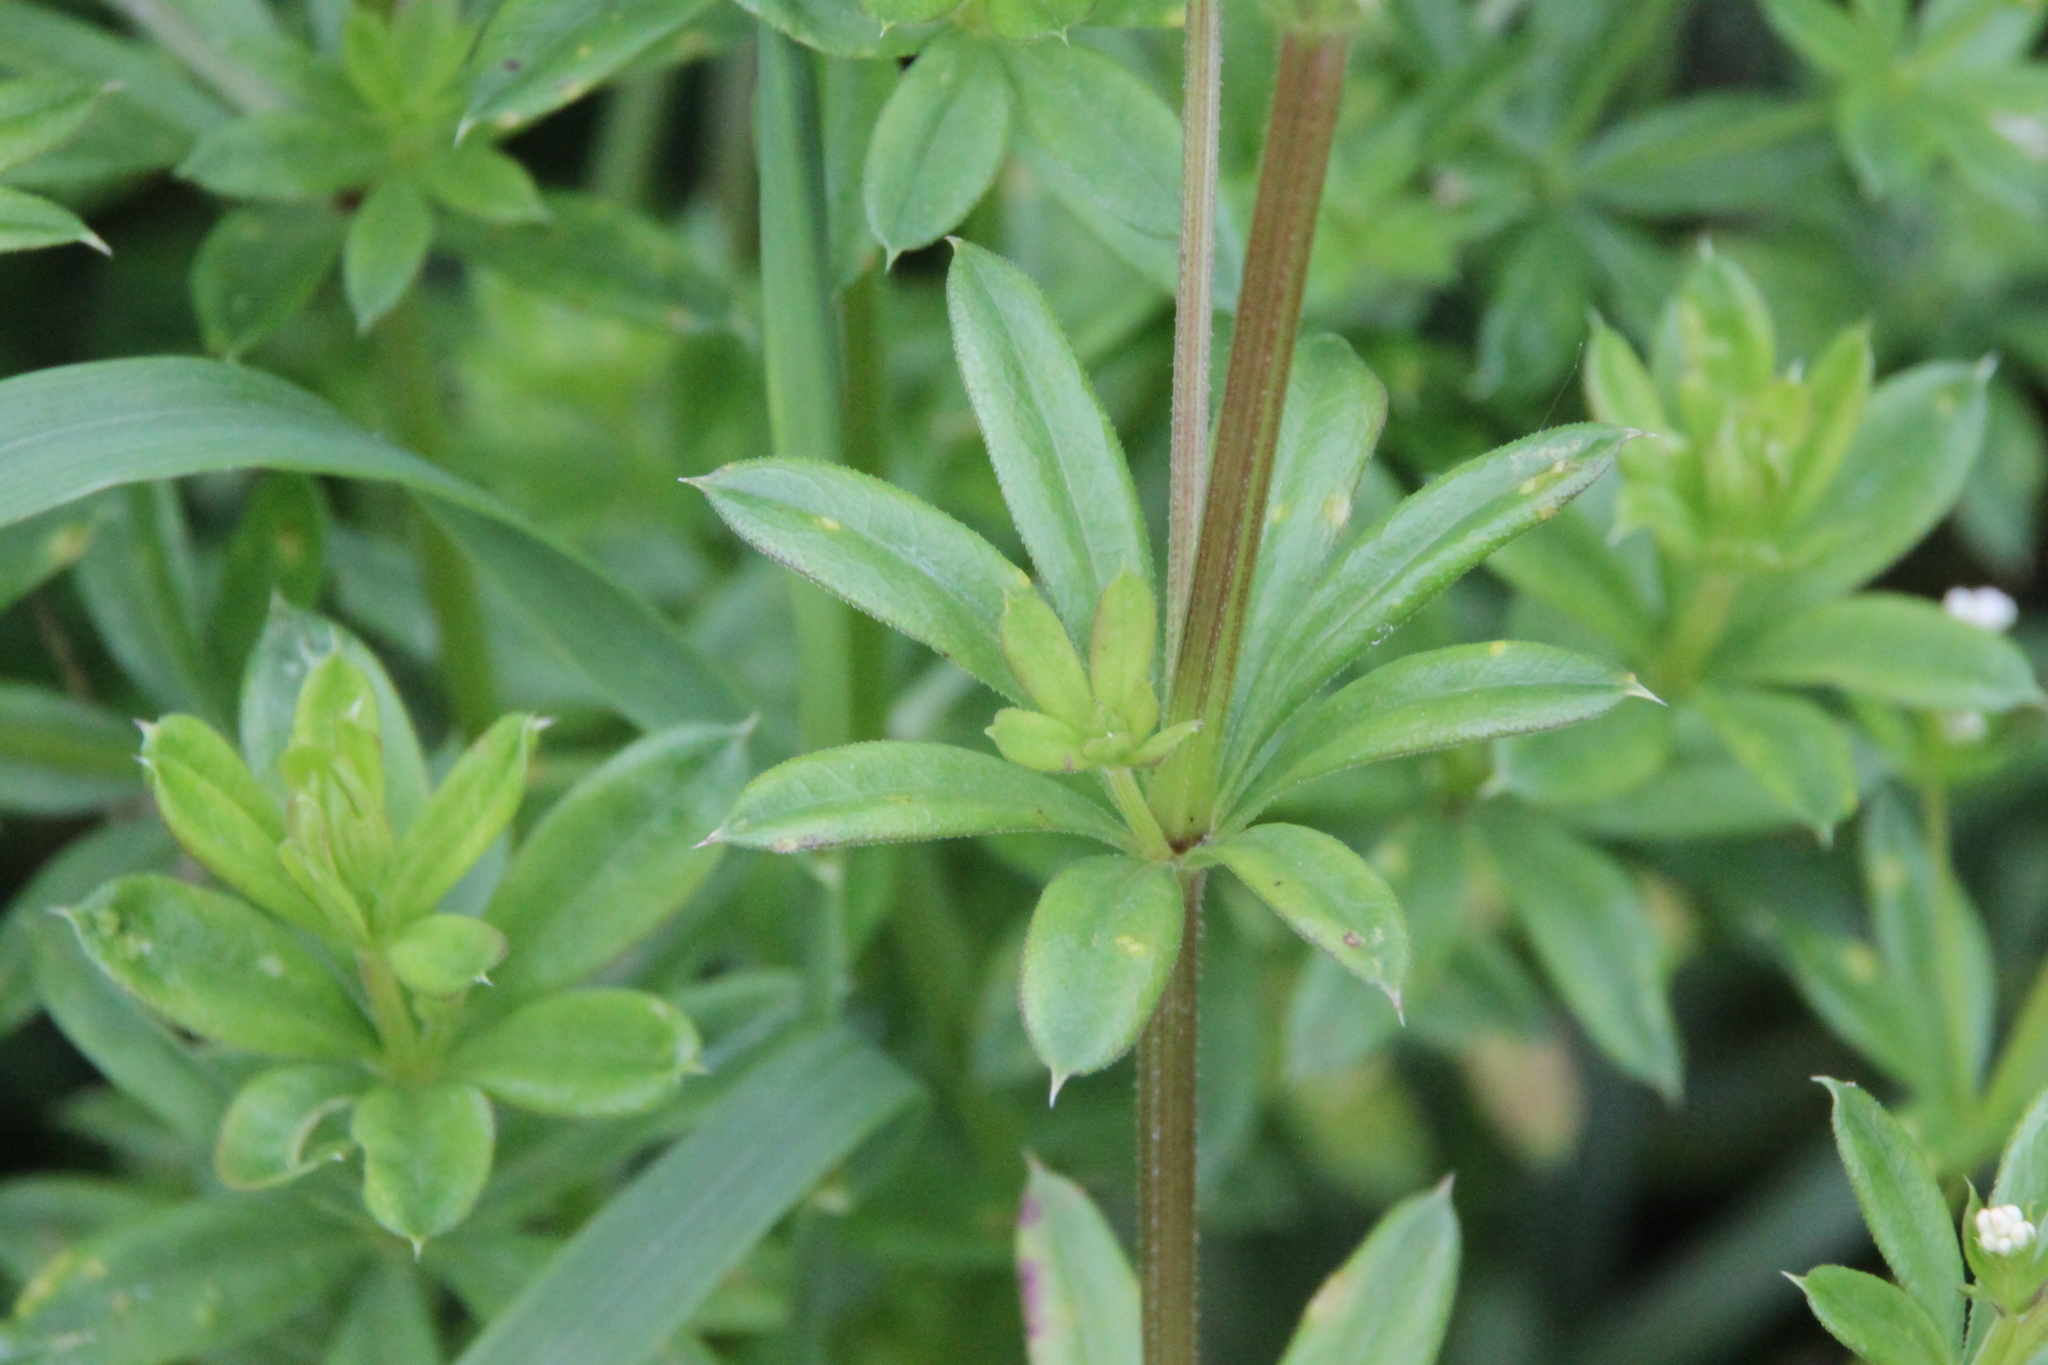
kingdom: Plantae
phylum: Tracheophyta
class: Magnoliopsida
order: Gentianales
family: Rubiaceae
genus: Galium
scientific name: Galium rivale
